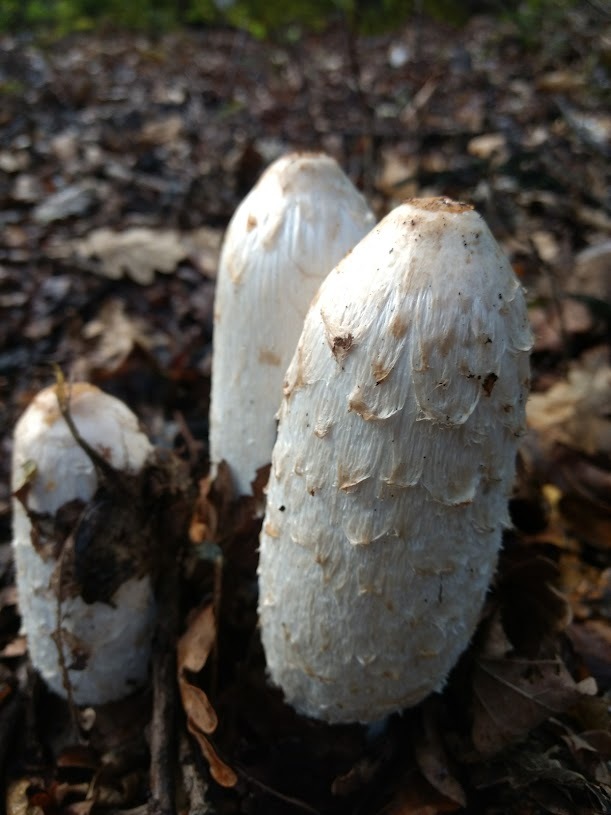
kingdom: Fungi
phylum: Basidiomycota
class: Agaricomycetes
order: Agaricales
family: Agaricaceae
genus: Coprinus
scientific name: Coprinus comatus
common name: Lawyer's wig
